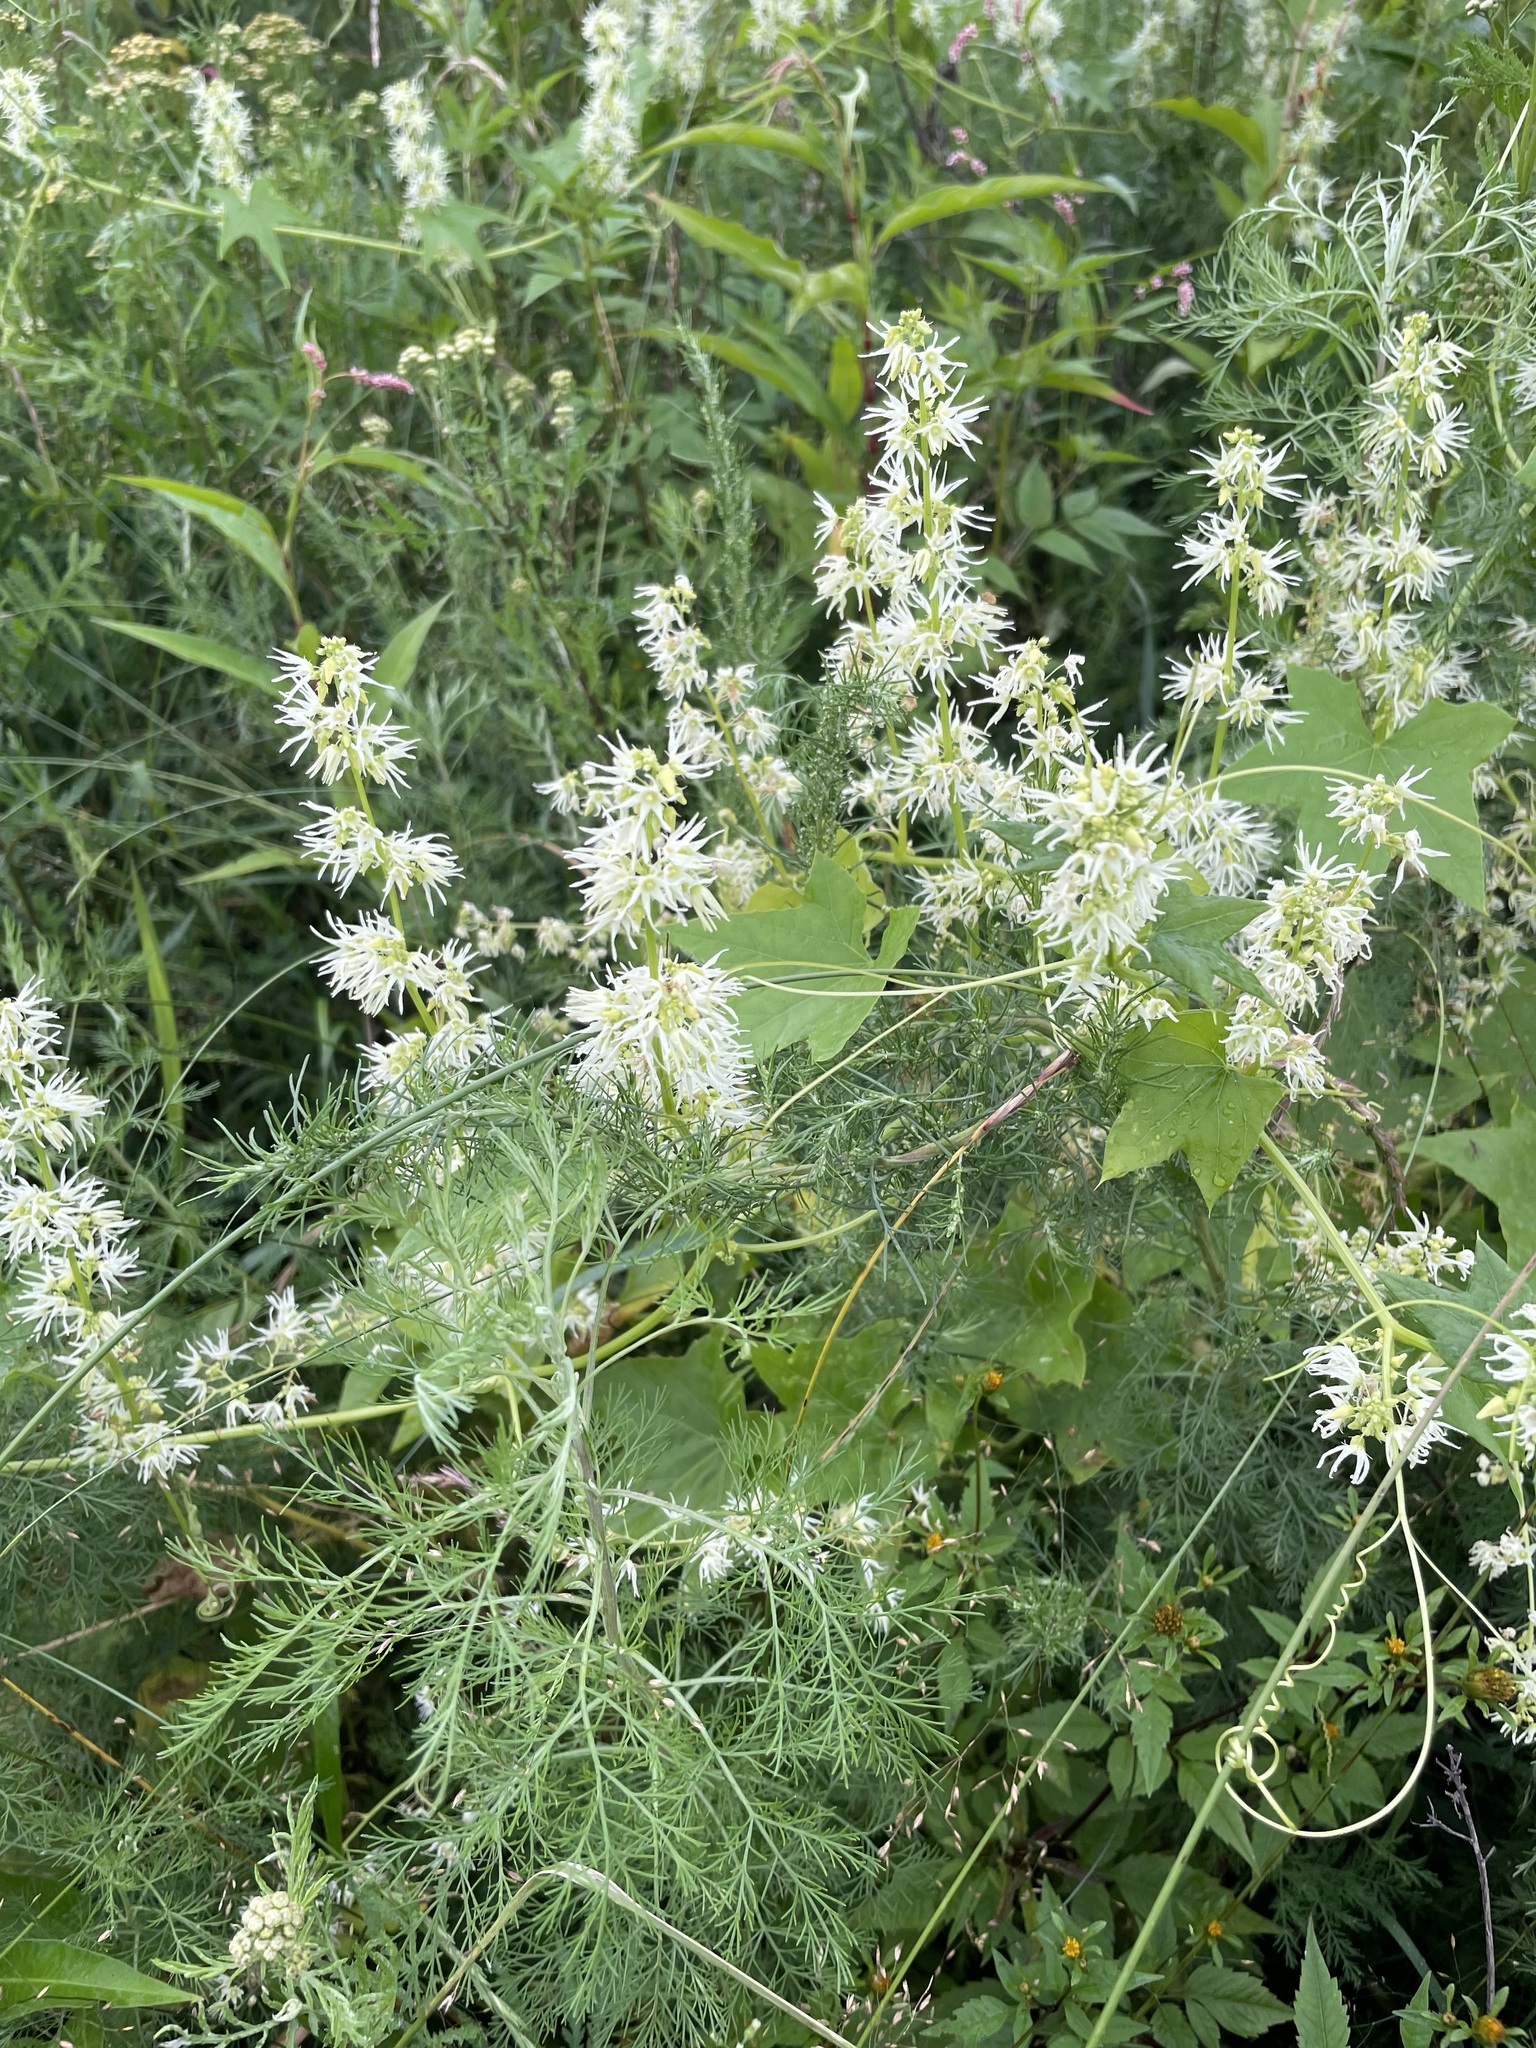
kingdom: Plantae
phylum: Tracheophyta
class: Magnoliopsida
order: Cucurbitales
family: Cucurbitaceae
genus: Echinocystis
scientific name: Echinocystis lobata
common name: Wild cucumber
